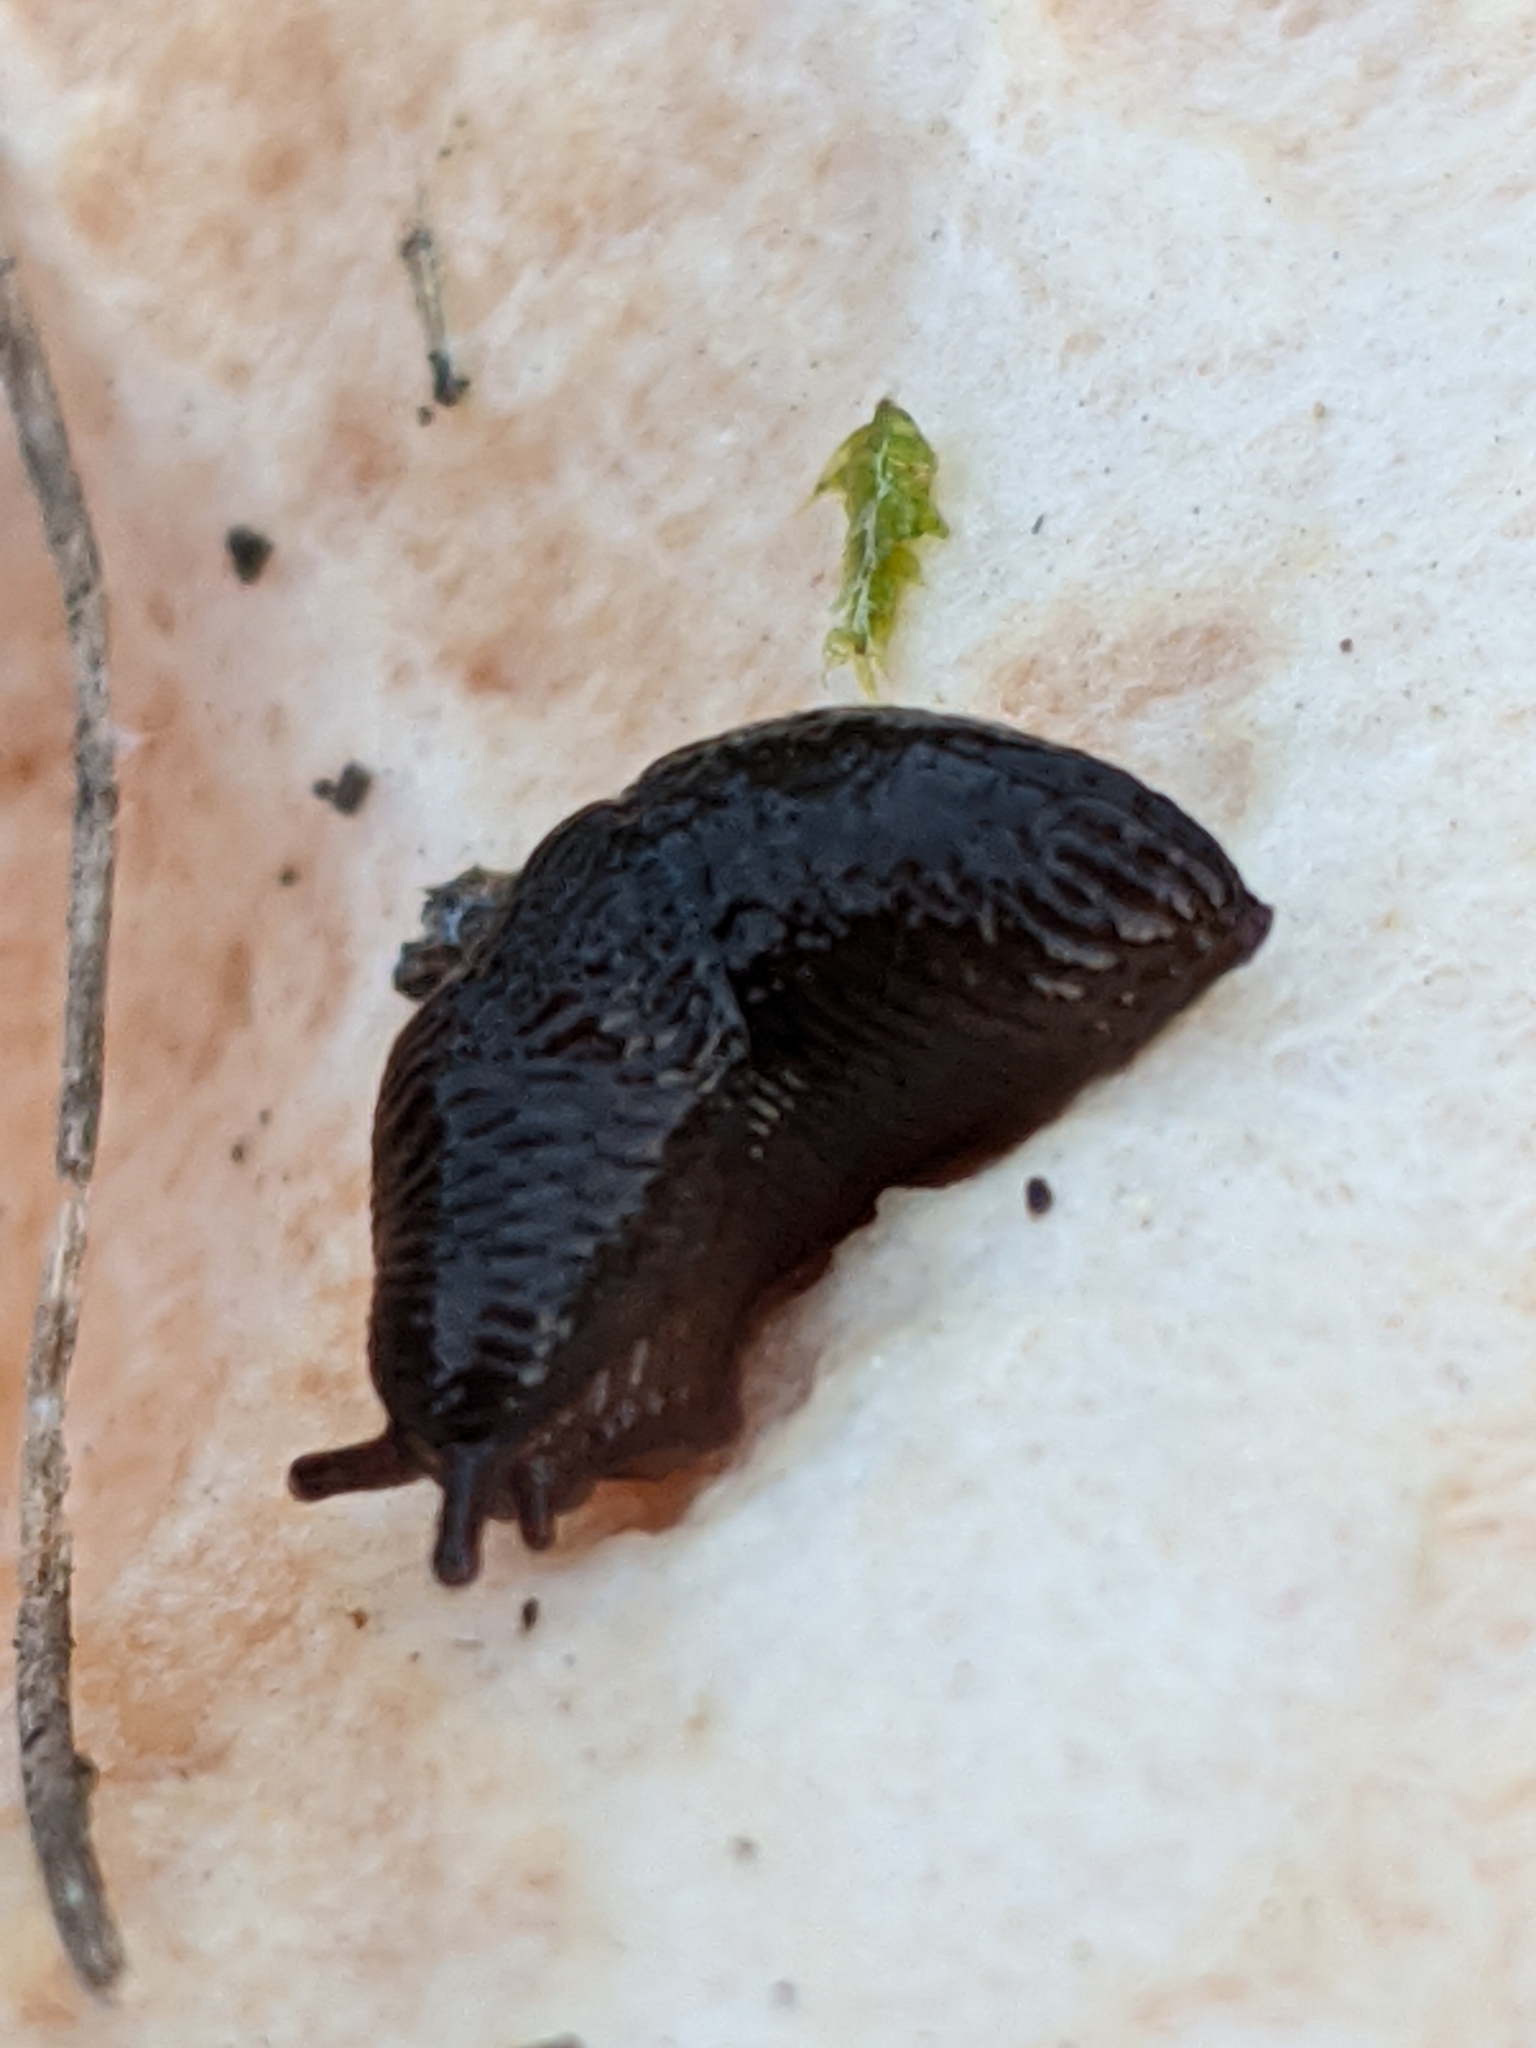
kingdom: Animalia
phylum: Mollusca
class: Gastropoda
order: Stylommatophora
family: Agriolimacidae
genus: Deroceras
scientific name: Deroceras laeve
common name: Marsh slug
